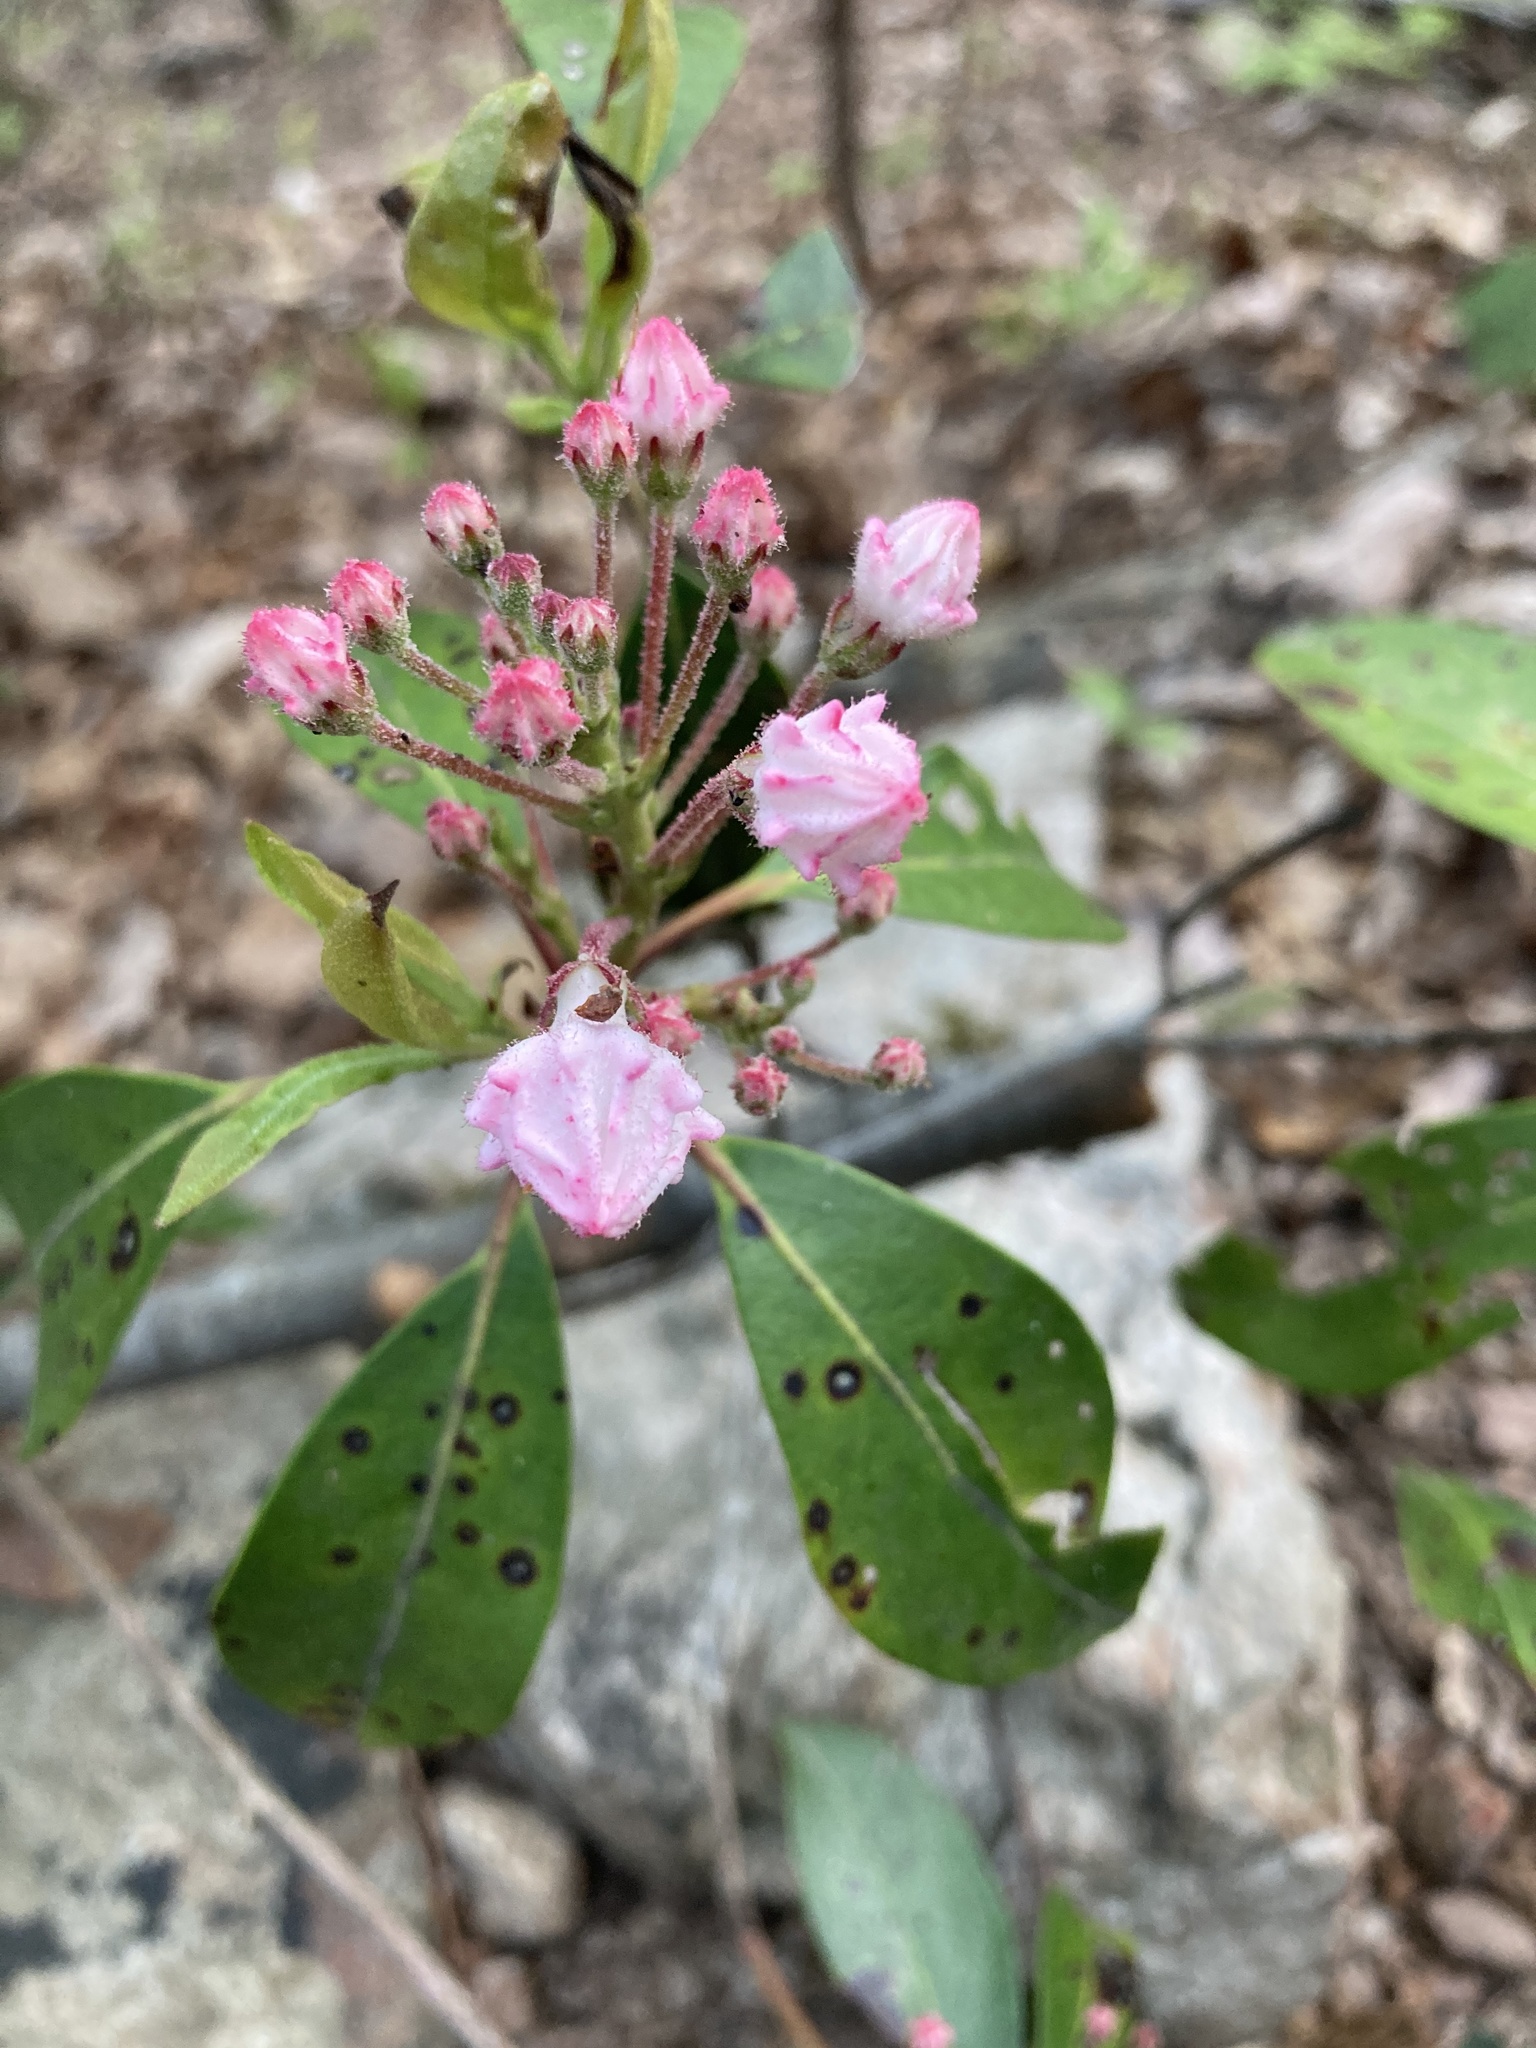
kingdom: Plantae
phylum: Tracheophyta
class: Magnoliopsida
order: Ericales
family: Ericaceae
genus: Kalmia
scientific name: Kalmia latifolia
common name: Mountain-laurel
